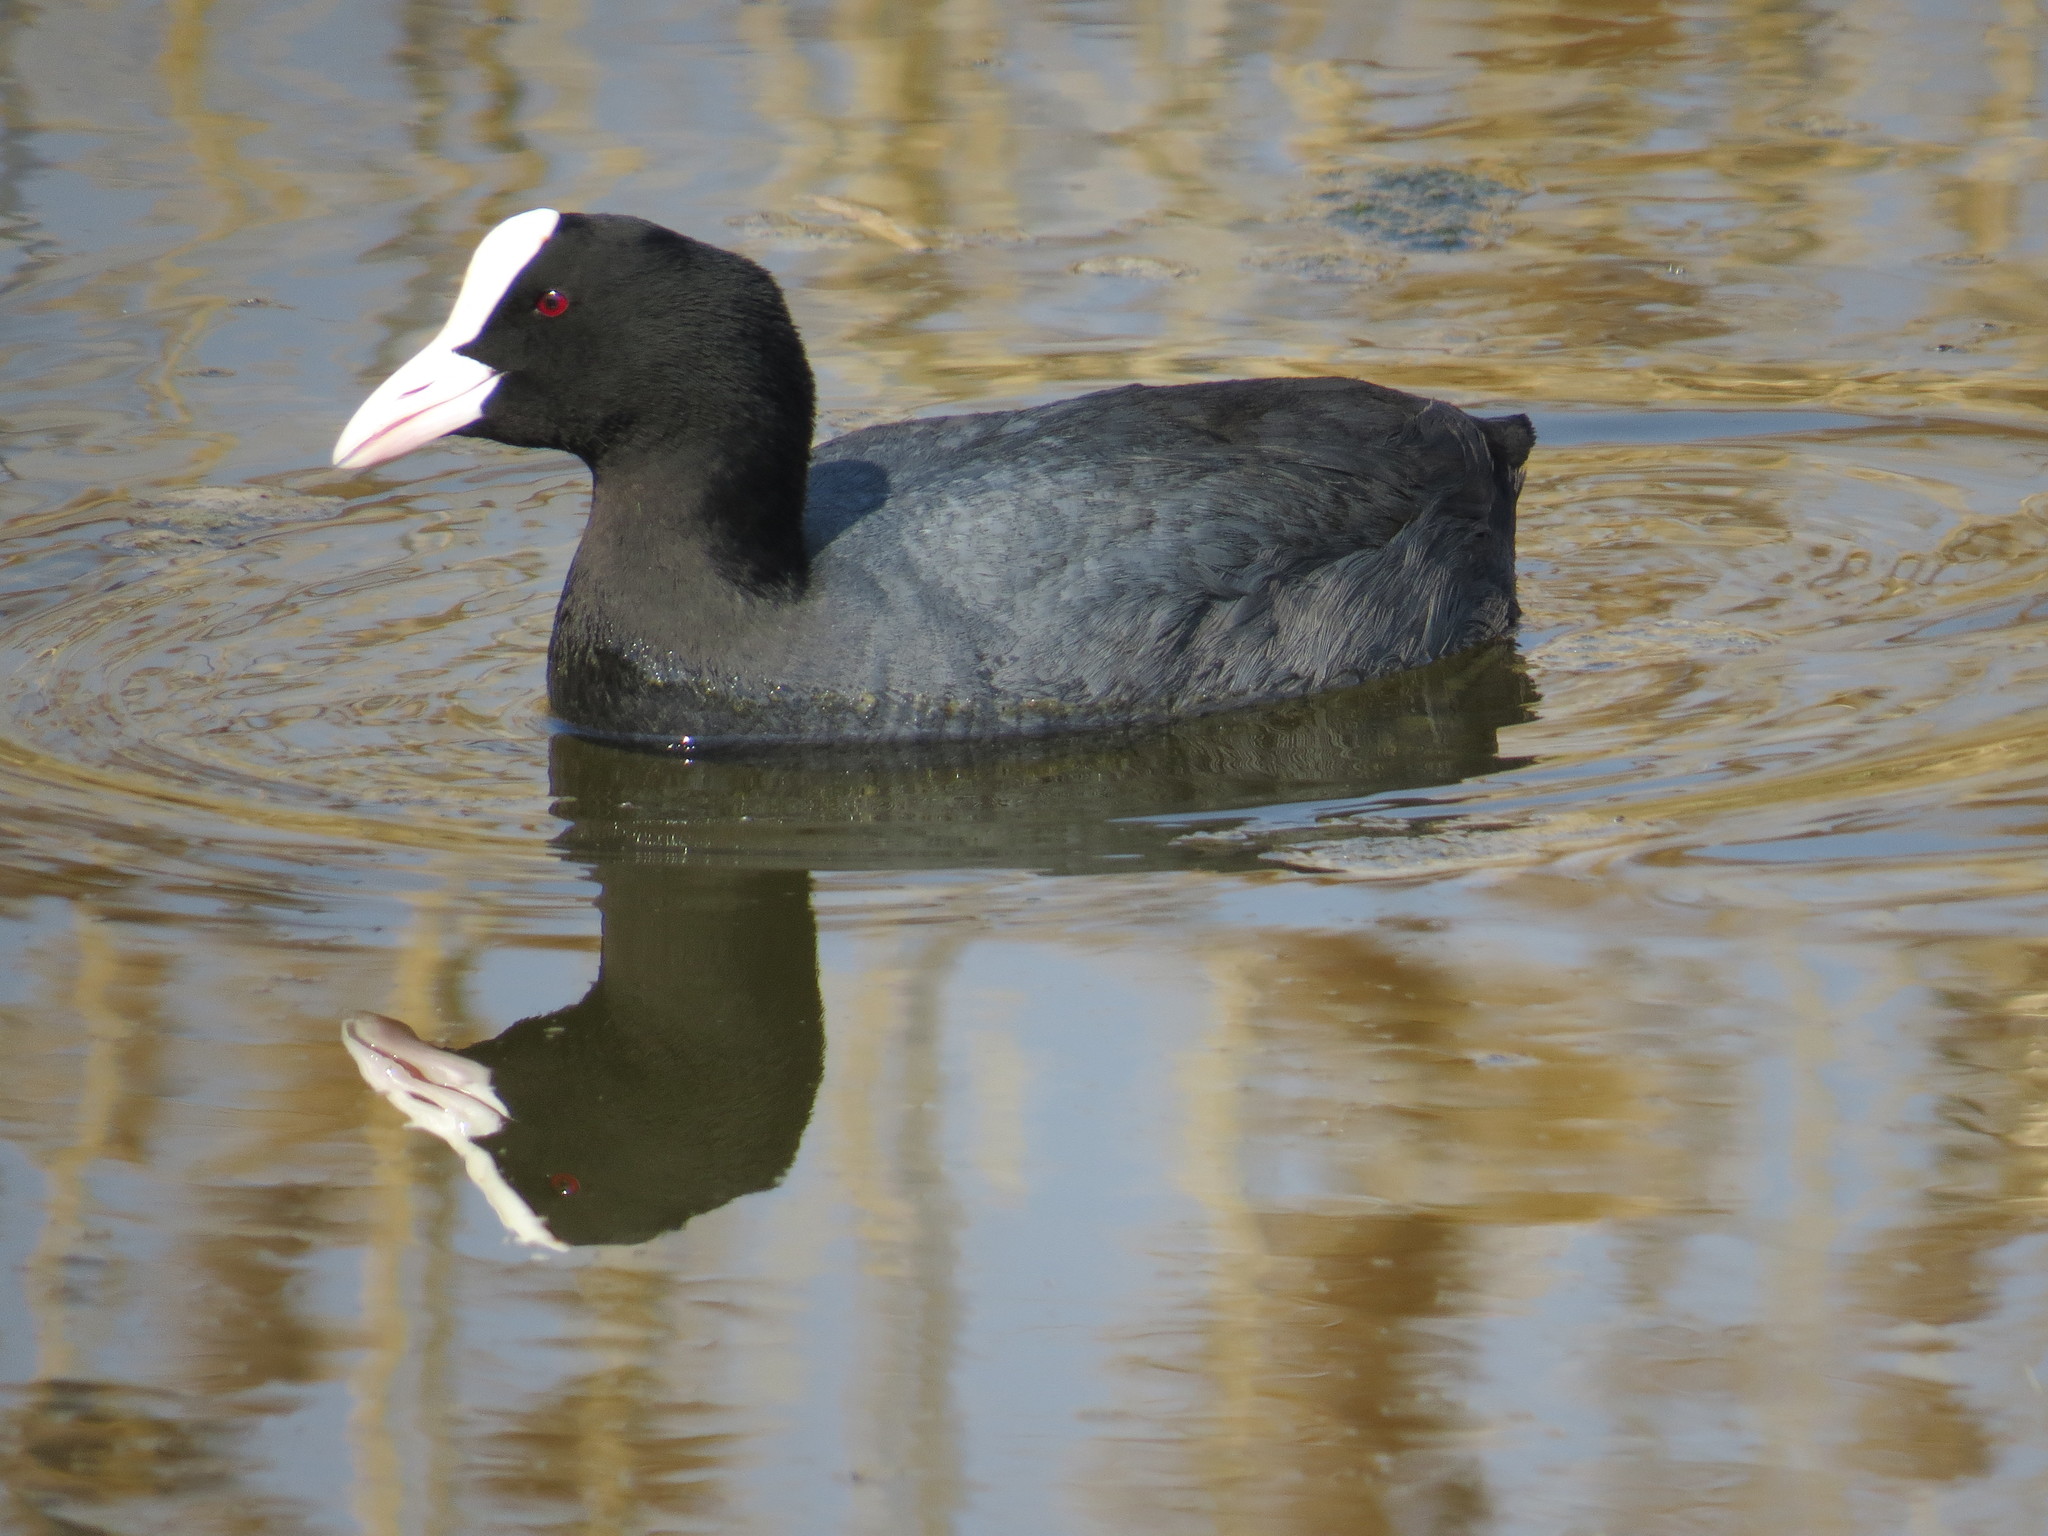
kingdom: Animalia
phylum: Chordata
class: Aves
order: Gruiformes
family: Rallidae
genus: Fulica
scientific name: Fulica atra
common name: Eurasian coot
